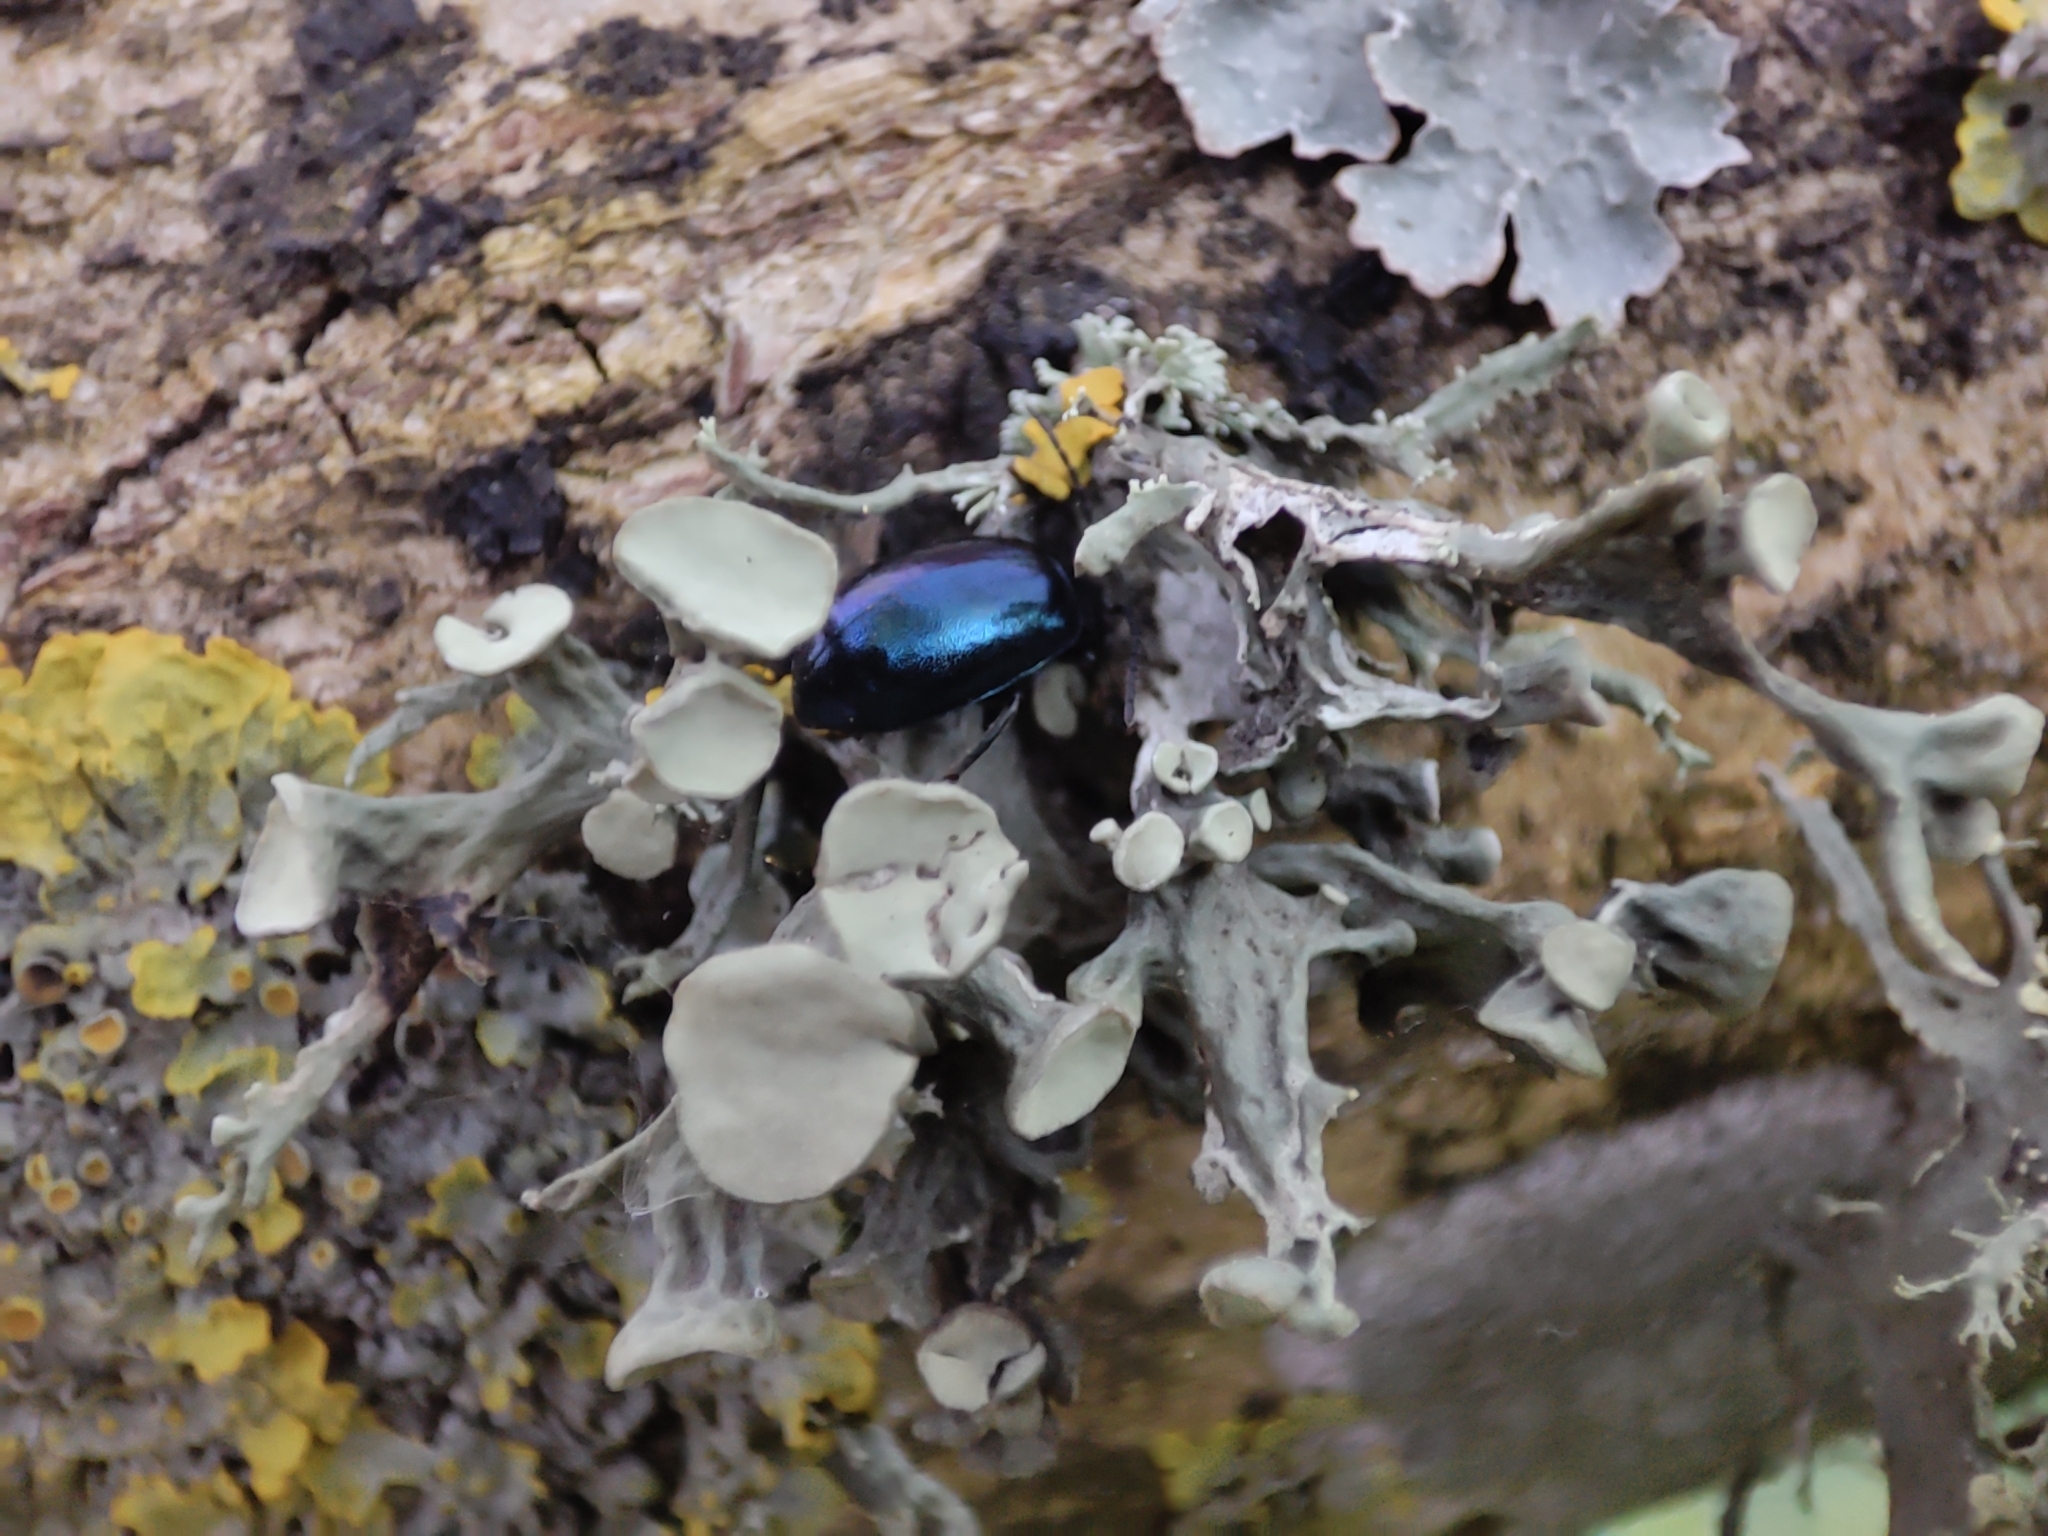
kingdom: Animalia
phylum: Arthropoda
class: Insecta
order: Coleoptera
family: Chrysomelidae
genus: Agelastica
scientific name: Agelastica alni
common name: Alder leaf beetle
